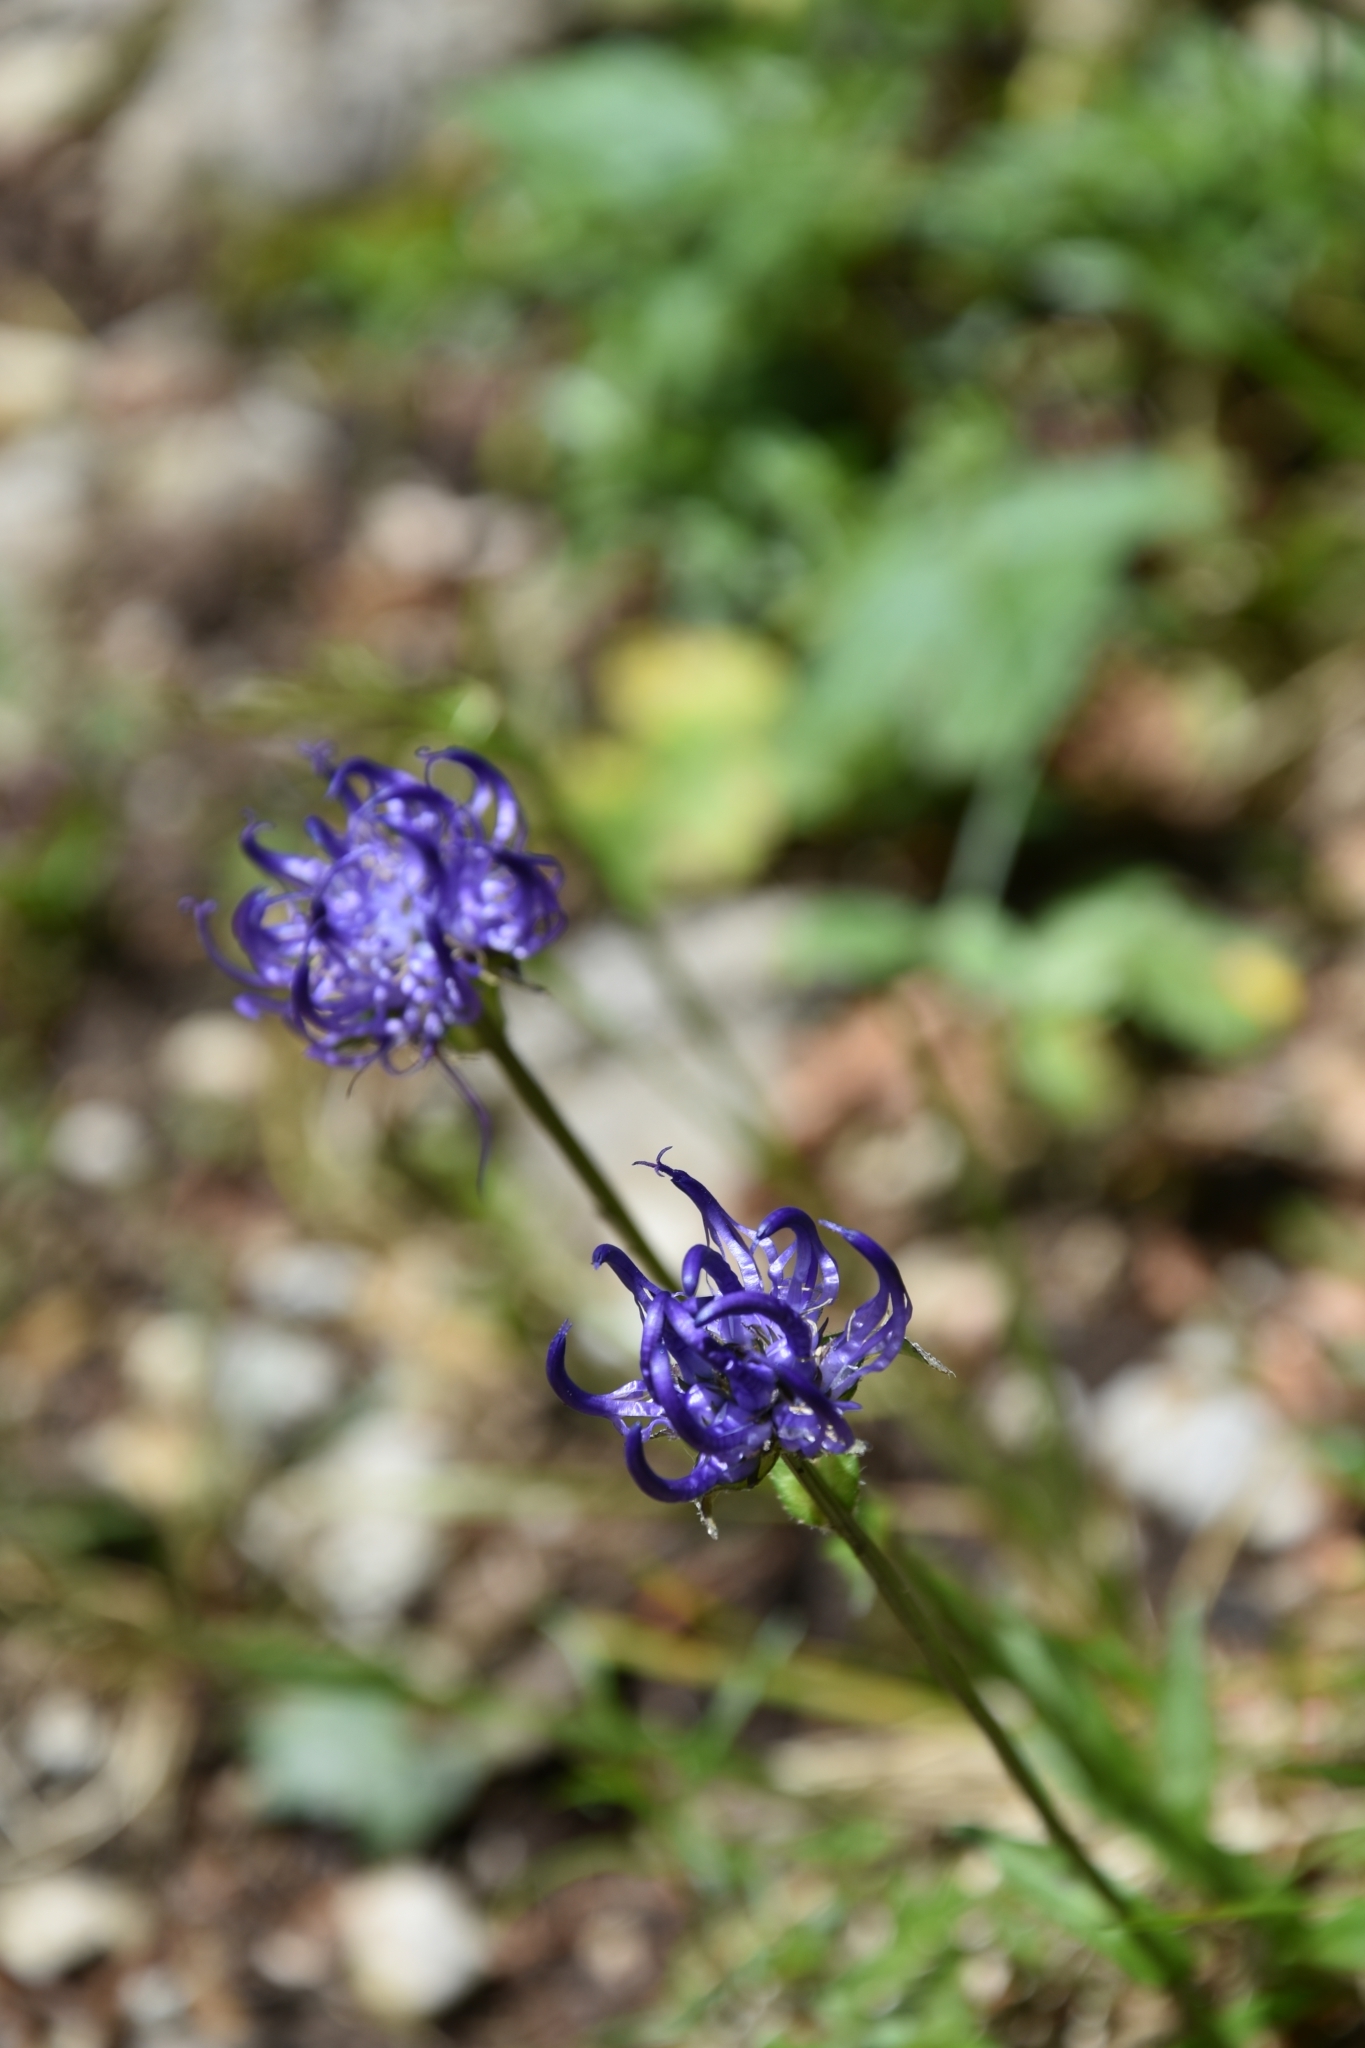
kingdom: Plantae
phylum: Tracheophyta
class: Magnoliopsida
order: Asterales
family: Campanulaceae
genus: Phyteuma
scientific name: Phyteuma orbiculare
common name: Round-headed rampion
